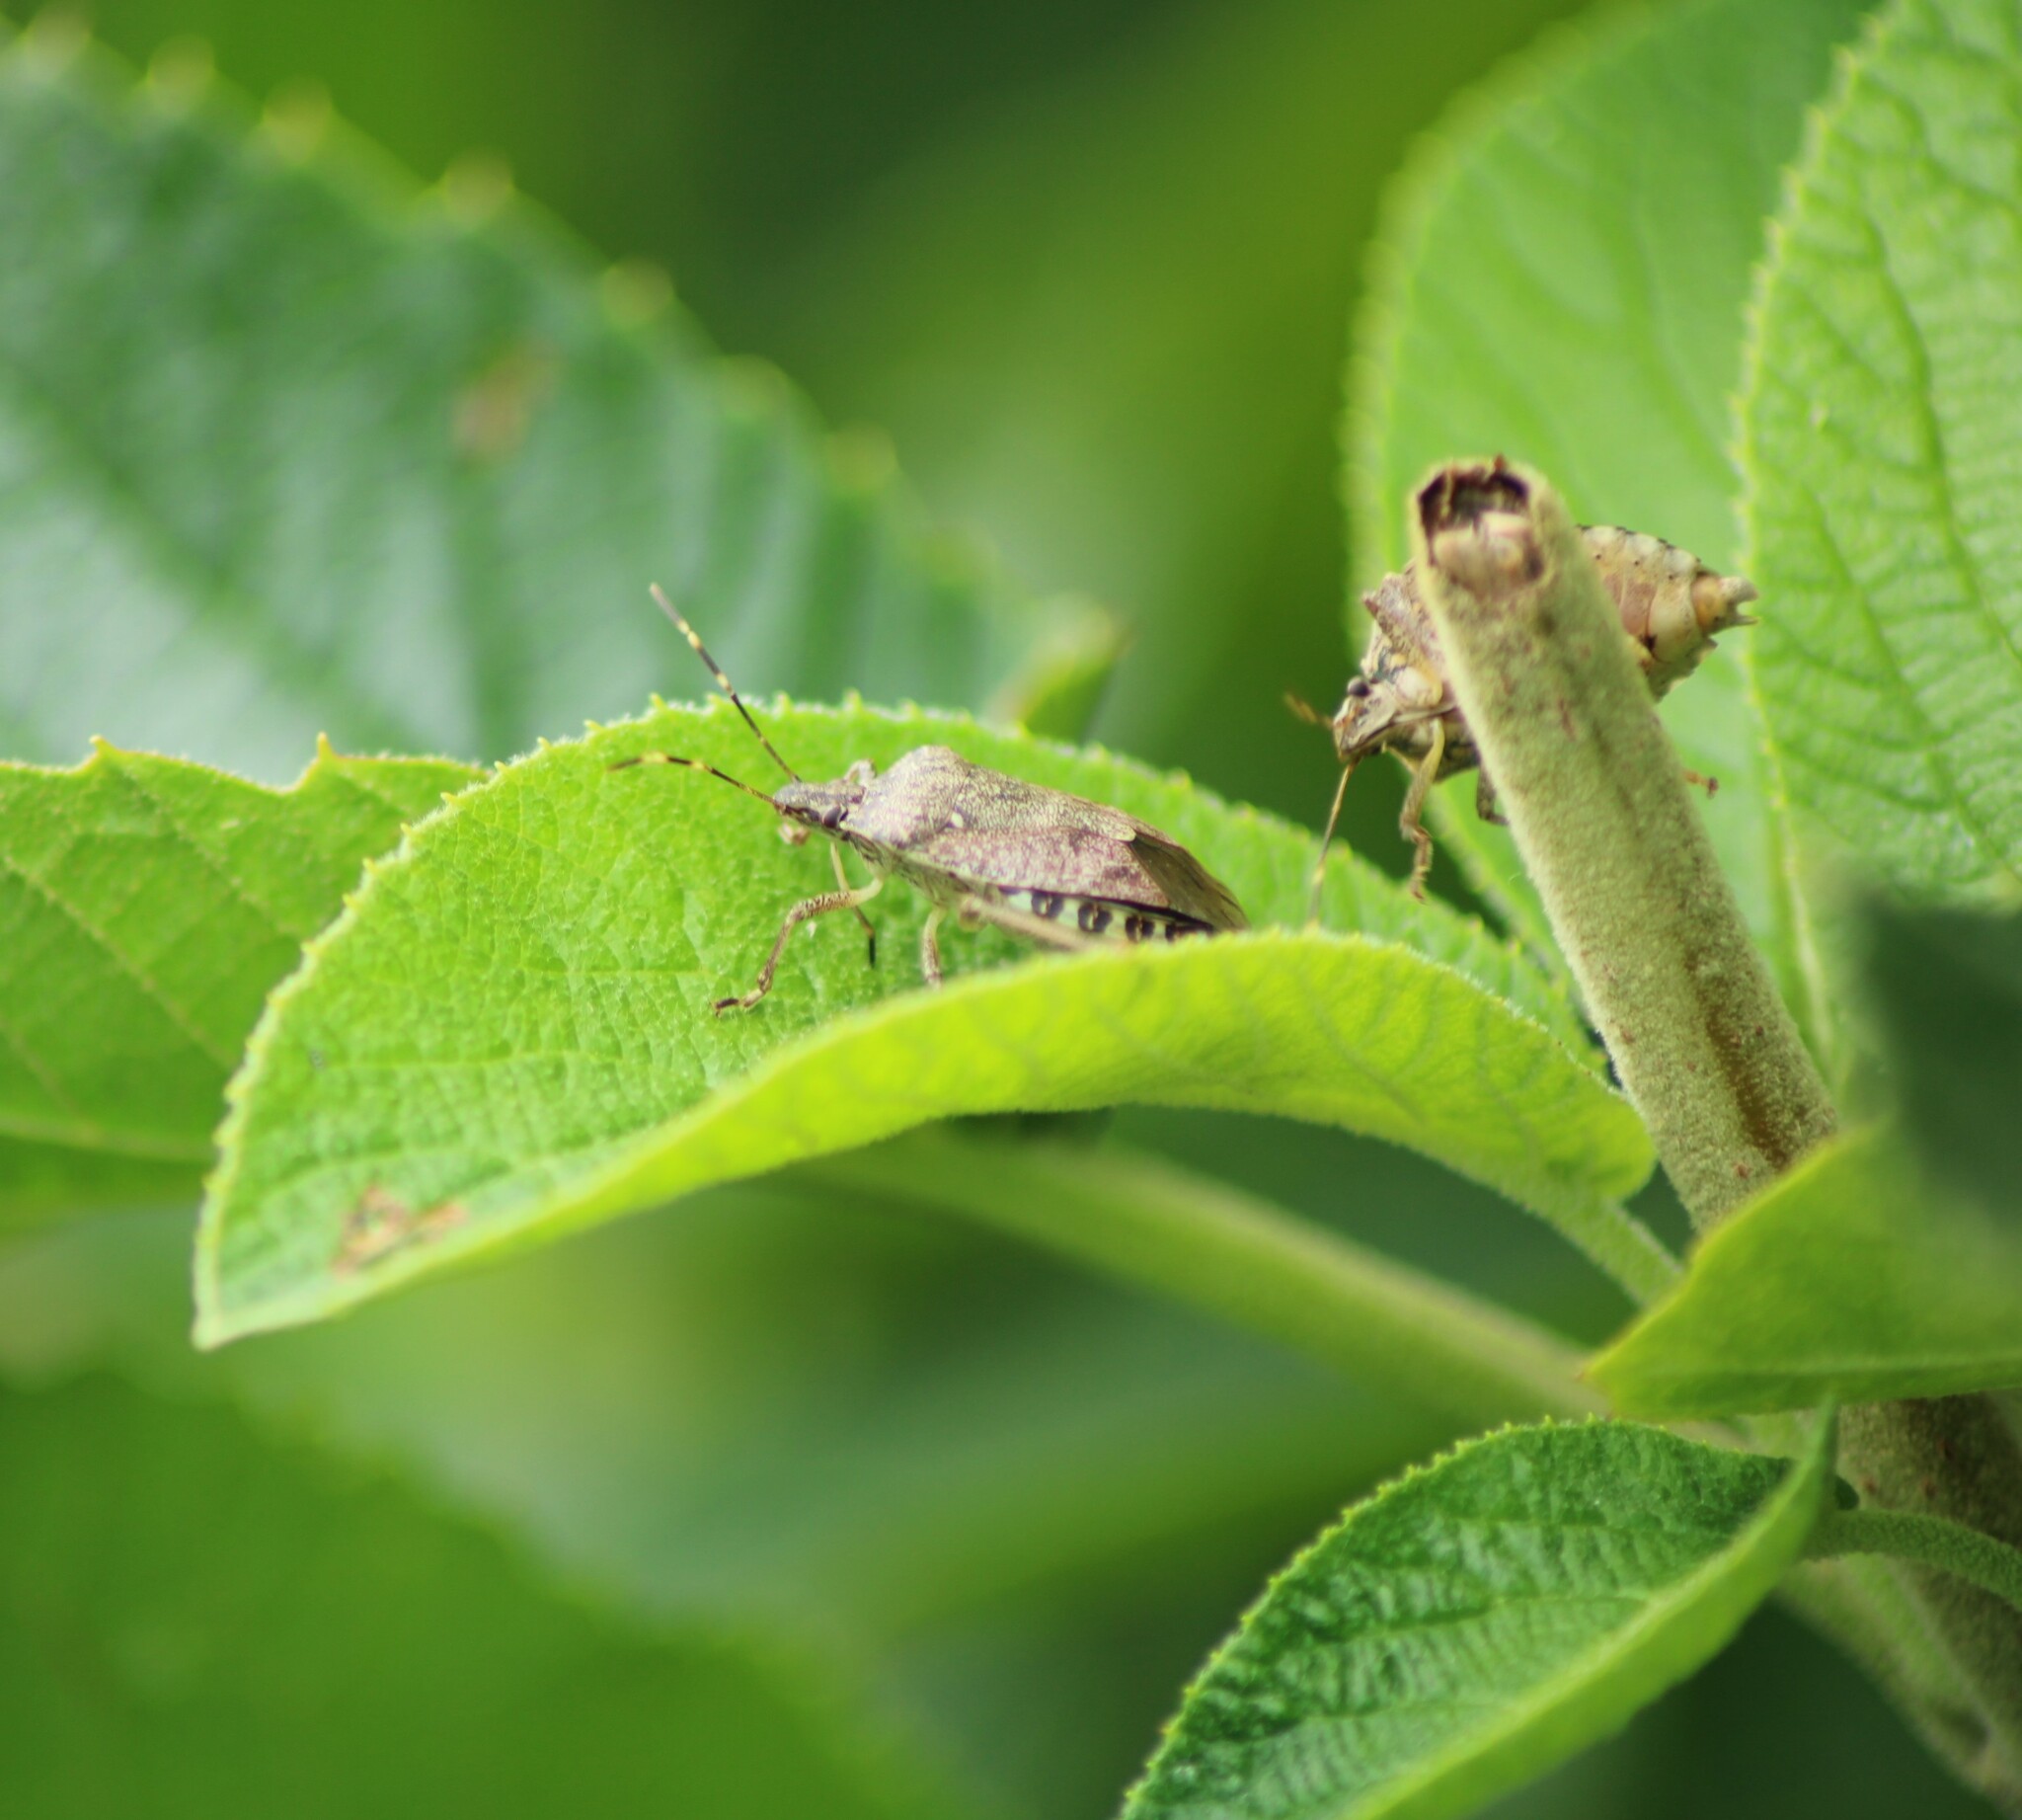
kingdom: Animalia
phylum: Arthropoda
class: Insecta
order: Hemiptera
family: Pentatomidae
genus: Halyomorpha
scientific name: Halyomorpha halys
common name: Brown marmorated stink bug
